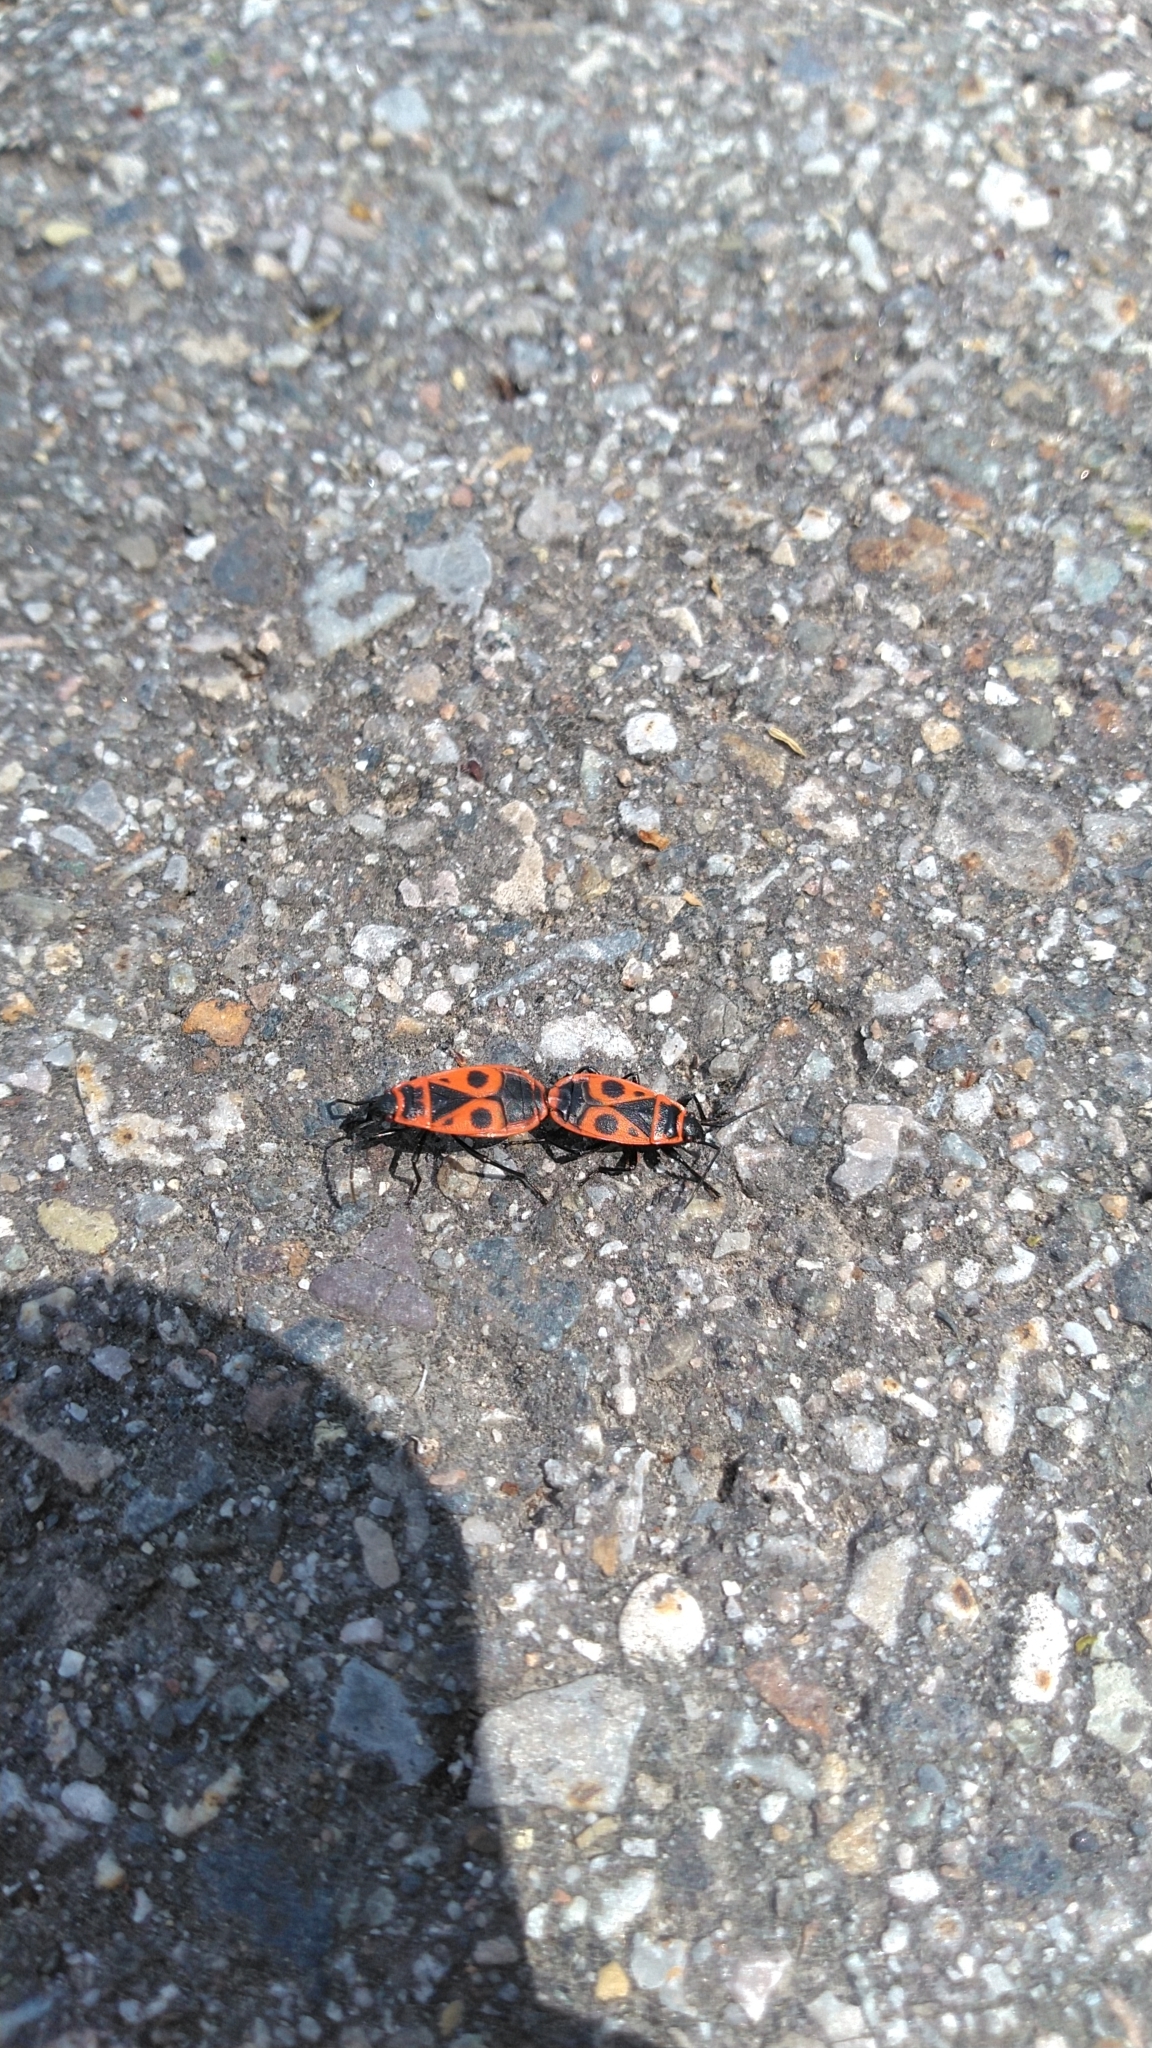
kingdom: Animalia
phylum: Arthropoda
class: Insecta
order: Hemiptera
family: Pyrrhocoridae
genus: Pyrrhocoris
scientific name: Pyrrhocoris apterus
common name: Firebug
